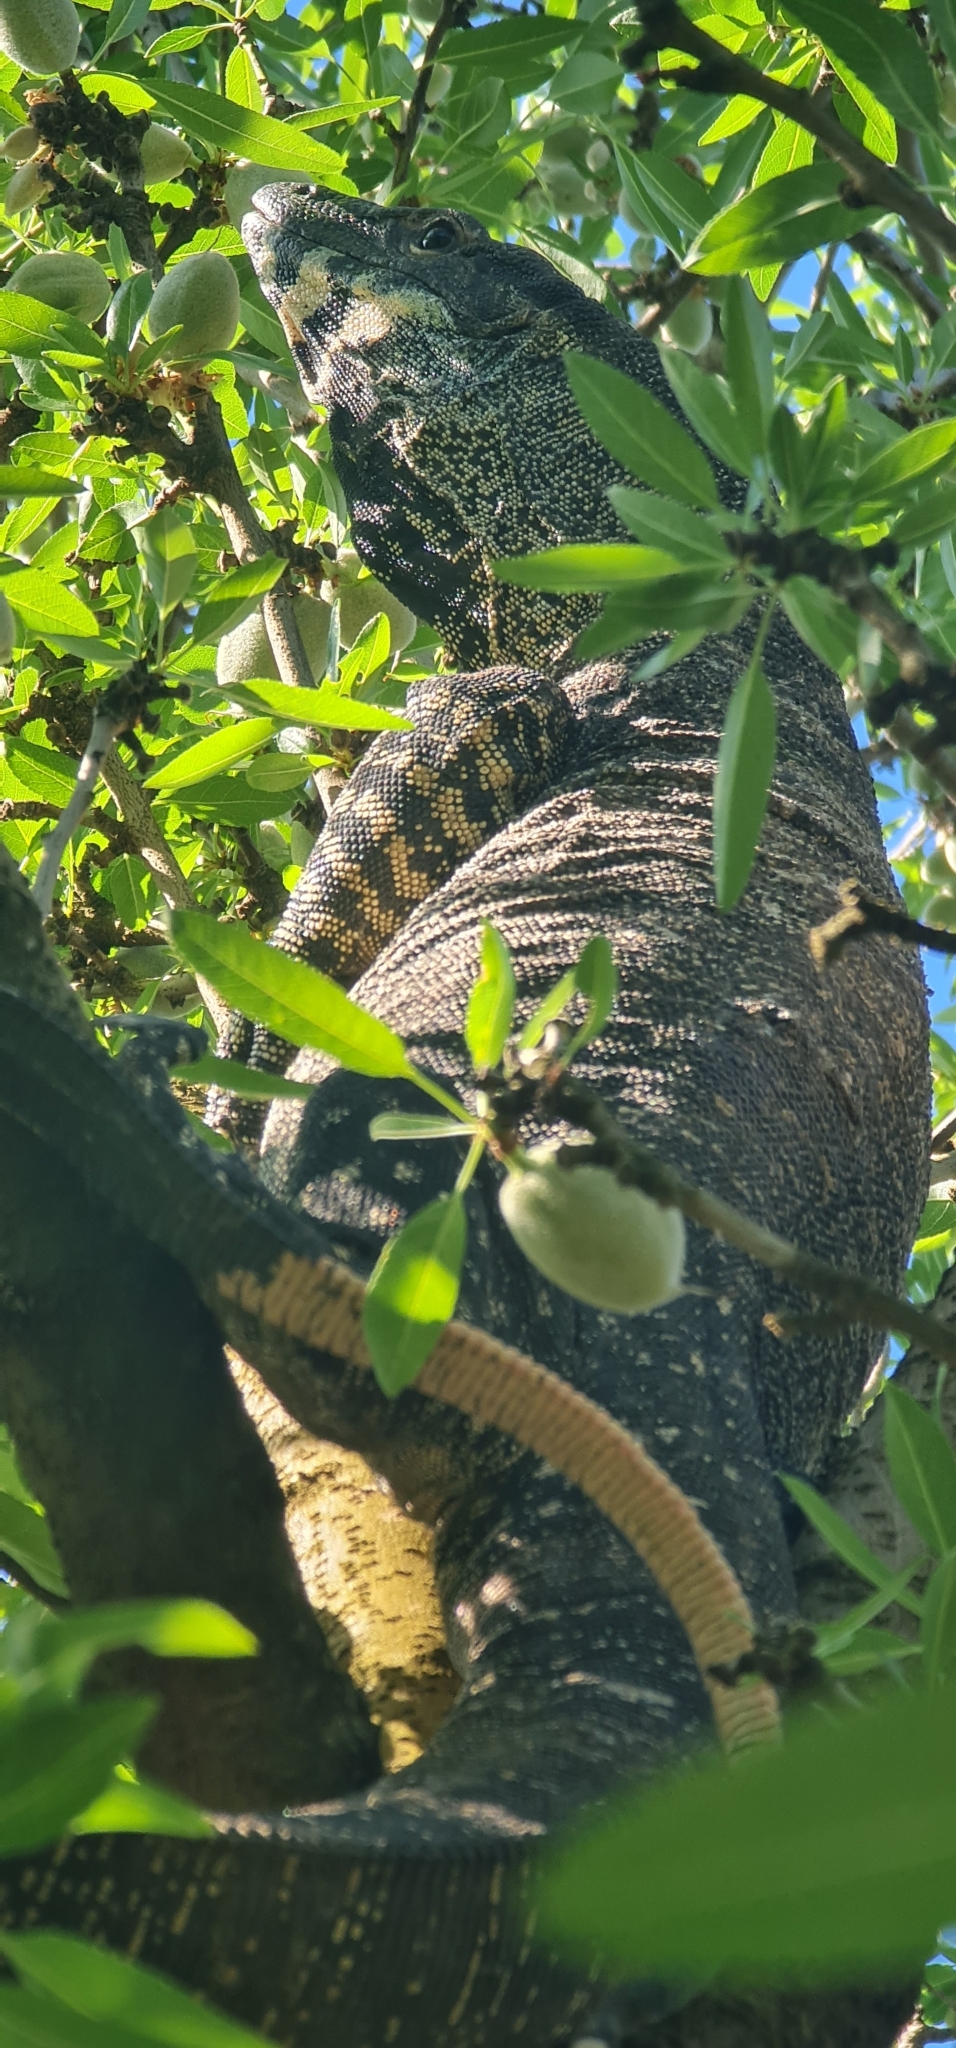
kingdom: Animalia
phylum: Chordata
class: Squamata
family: Varanidae
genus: Varanus
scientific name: Varanus varius
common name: Lace monitor
